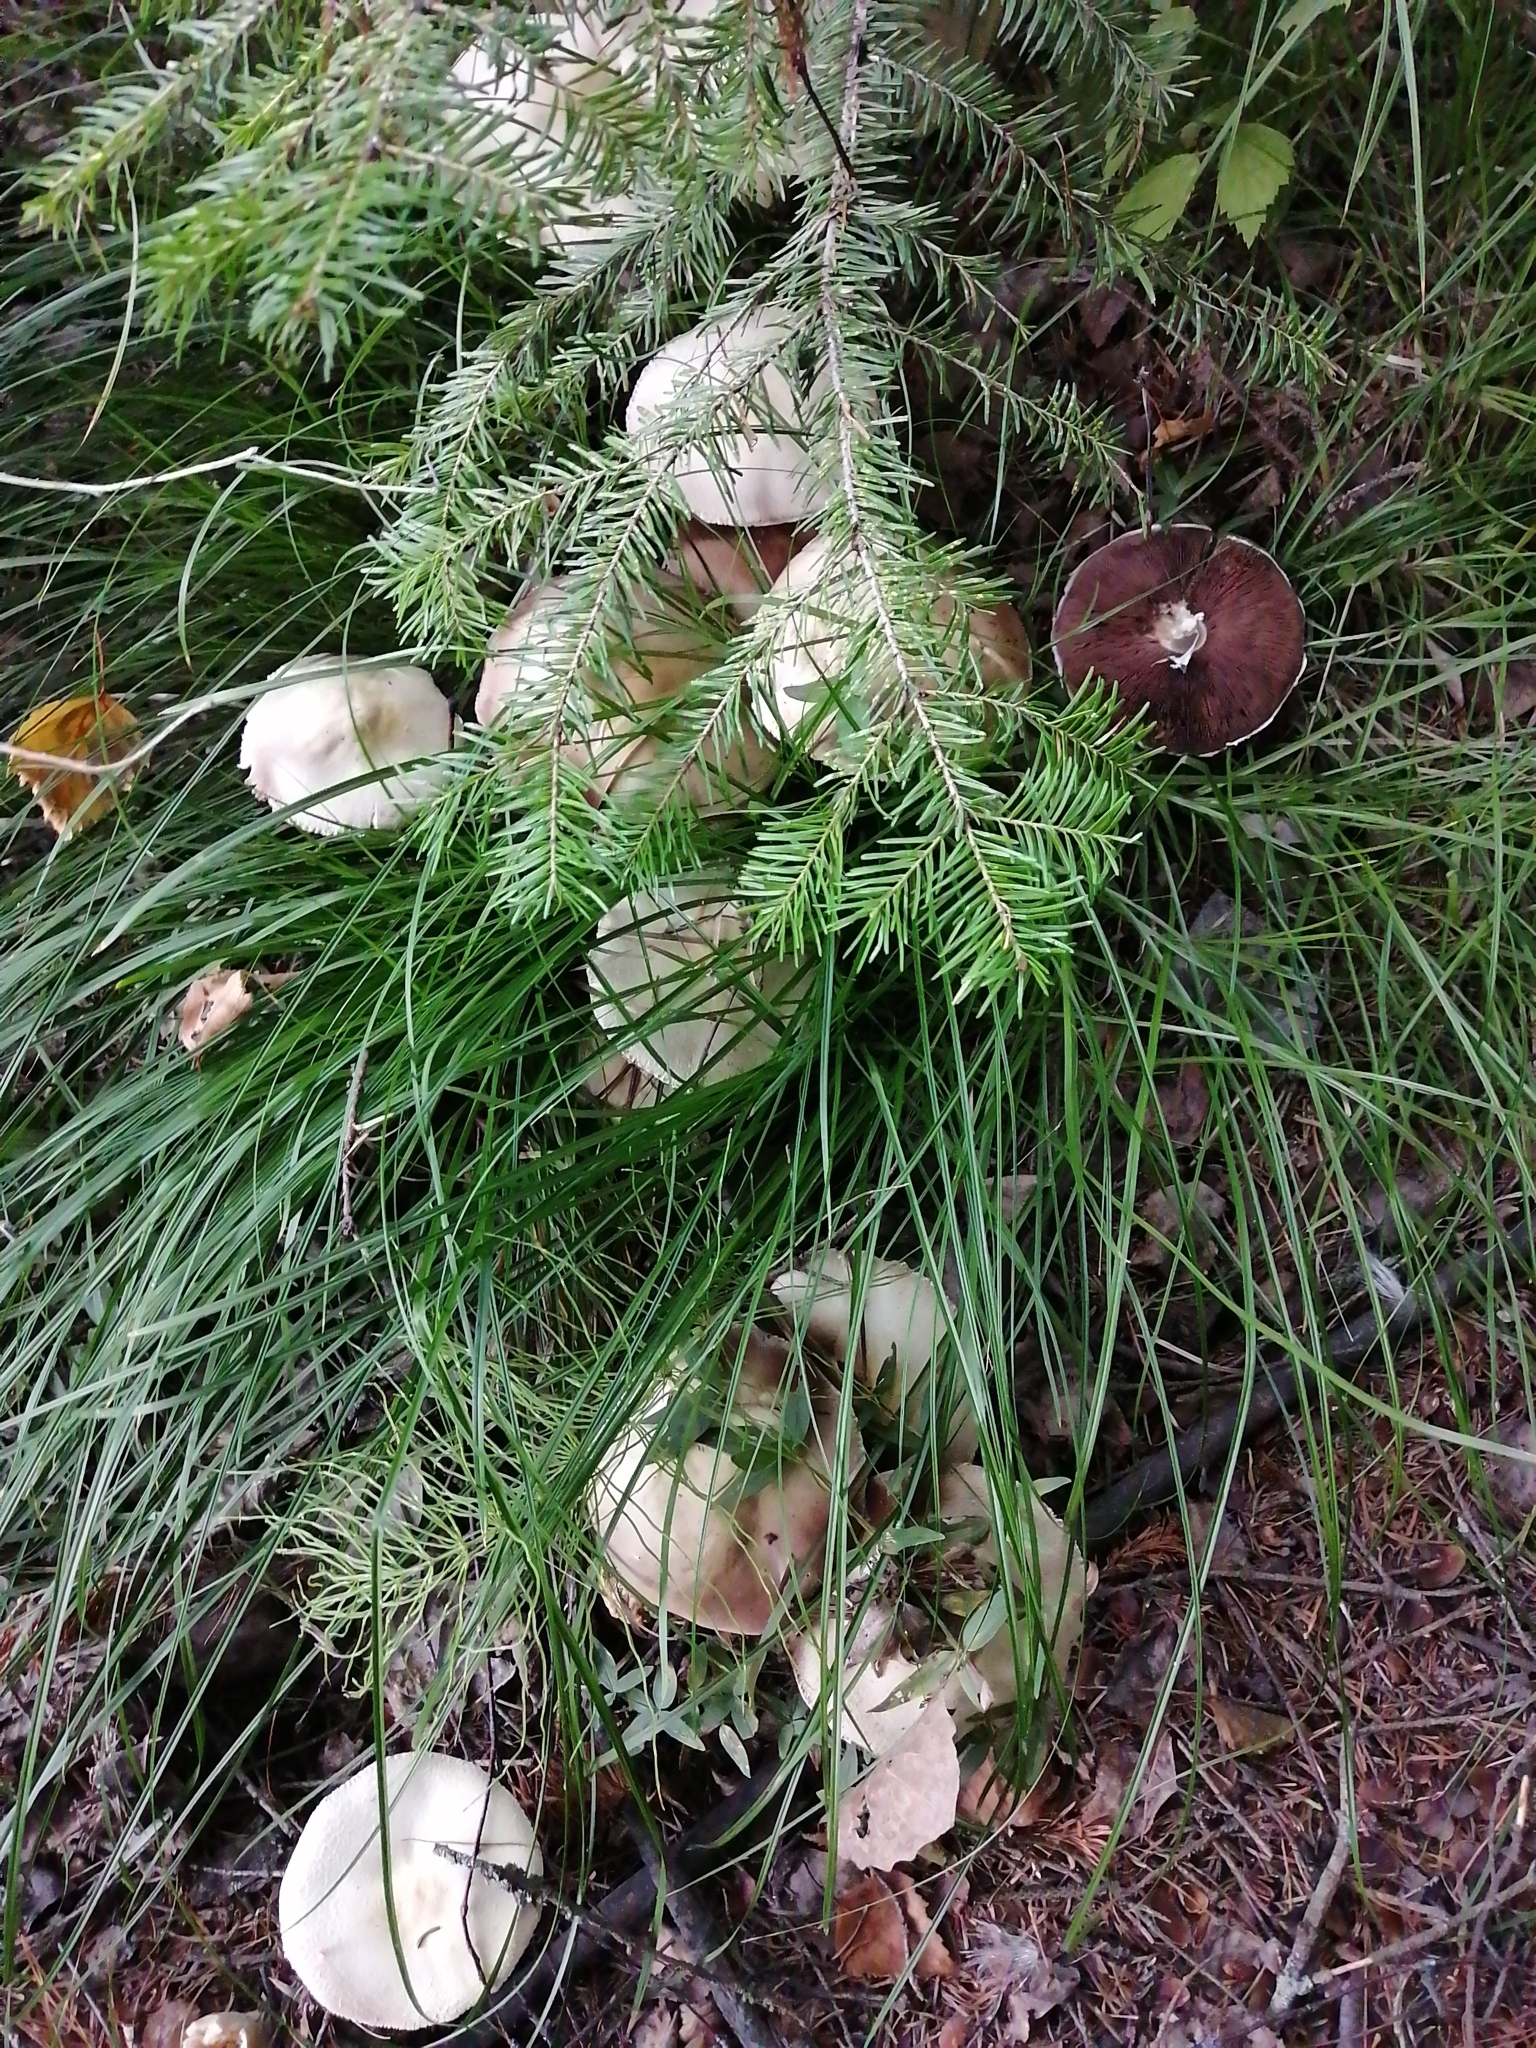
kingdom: Fungi
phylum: Basidiomycota
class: Agaricomycetes
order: Agaricales
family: Agaricaceae
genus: Agaricus
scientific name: Agaricus sylvicola
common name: Wood mushroom
